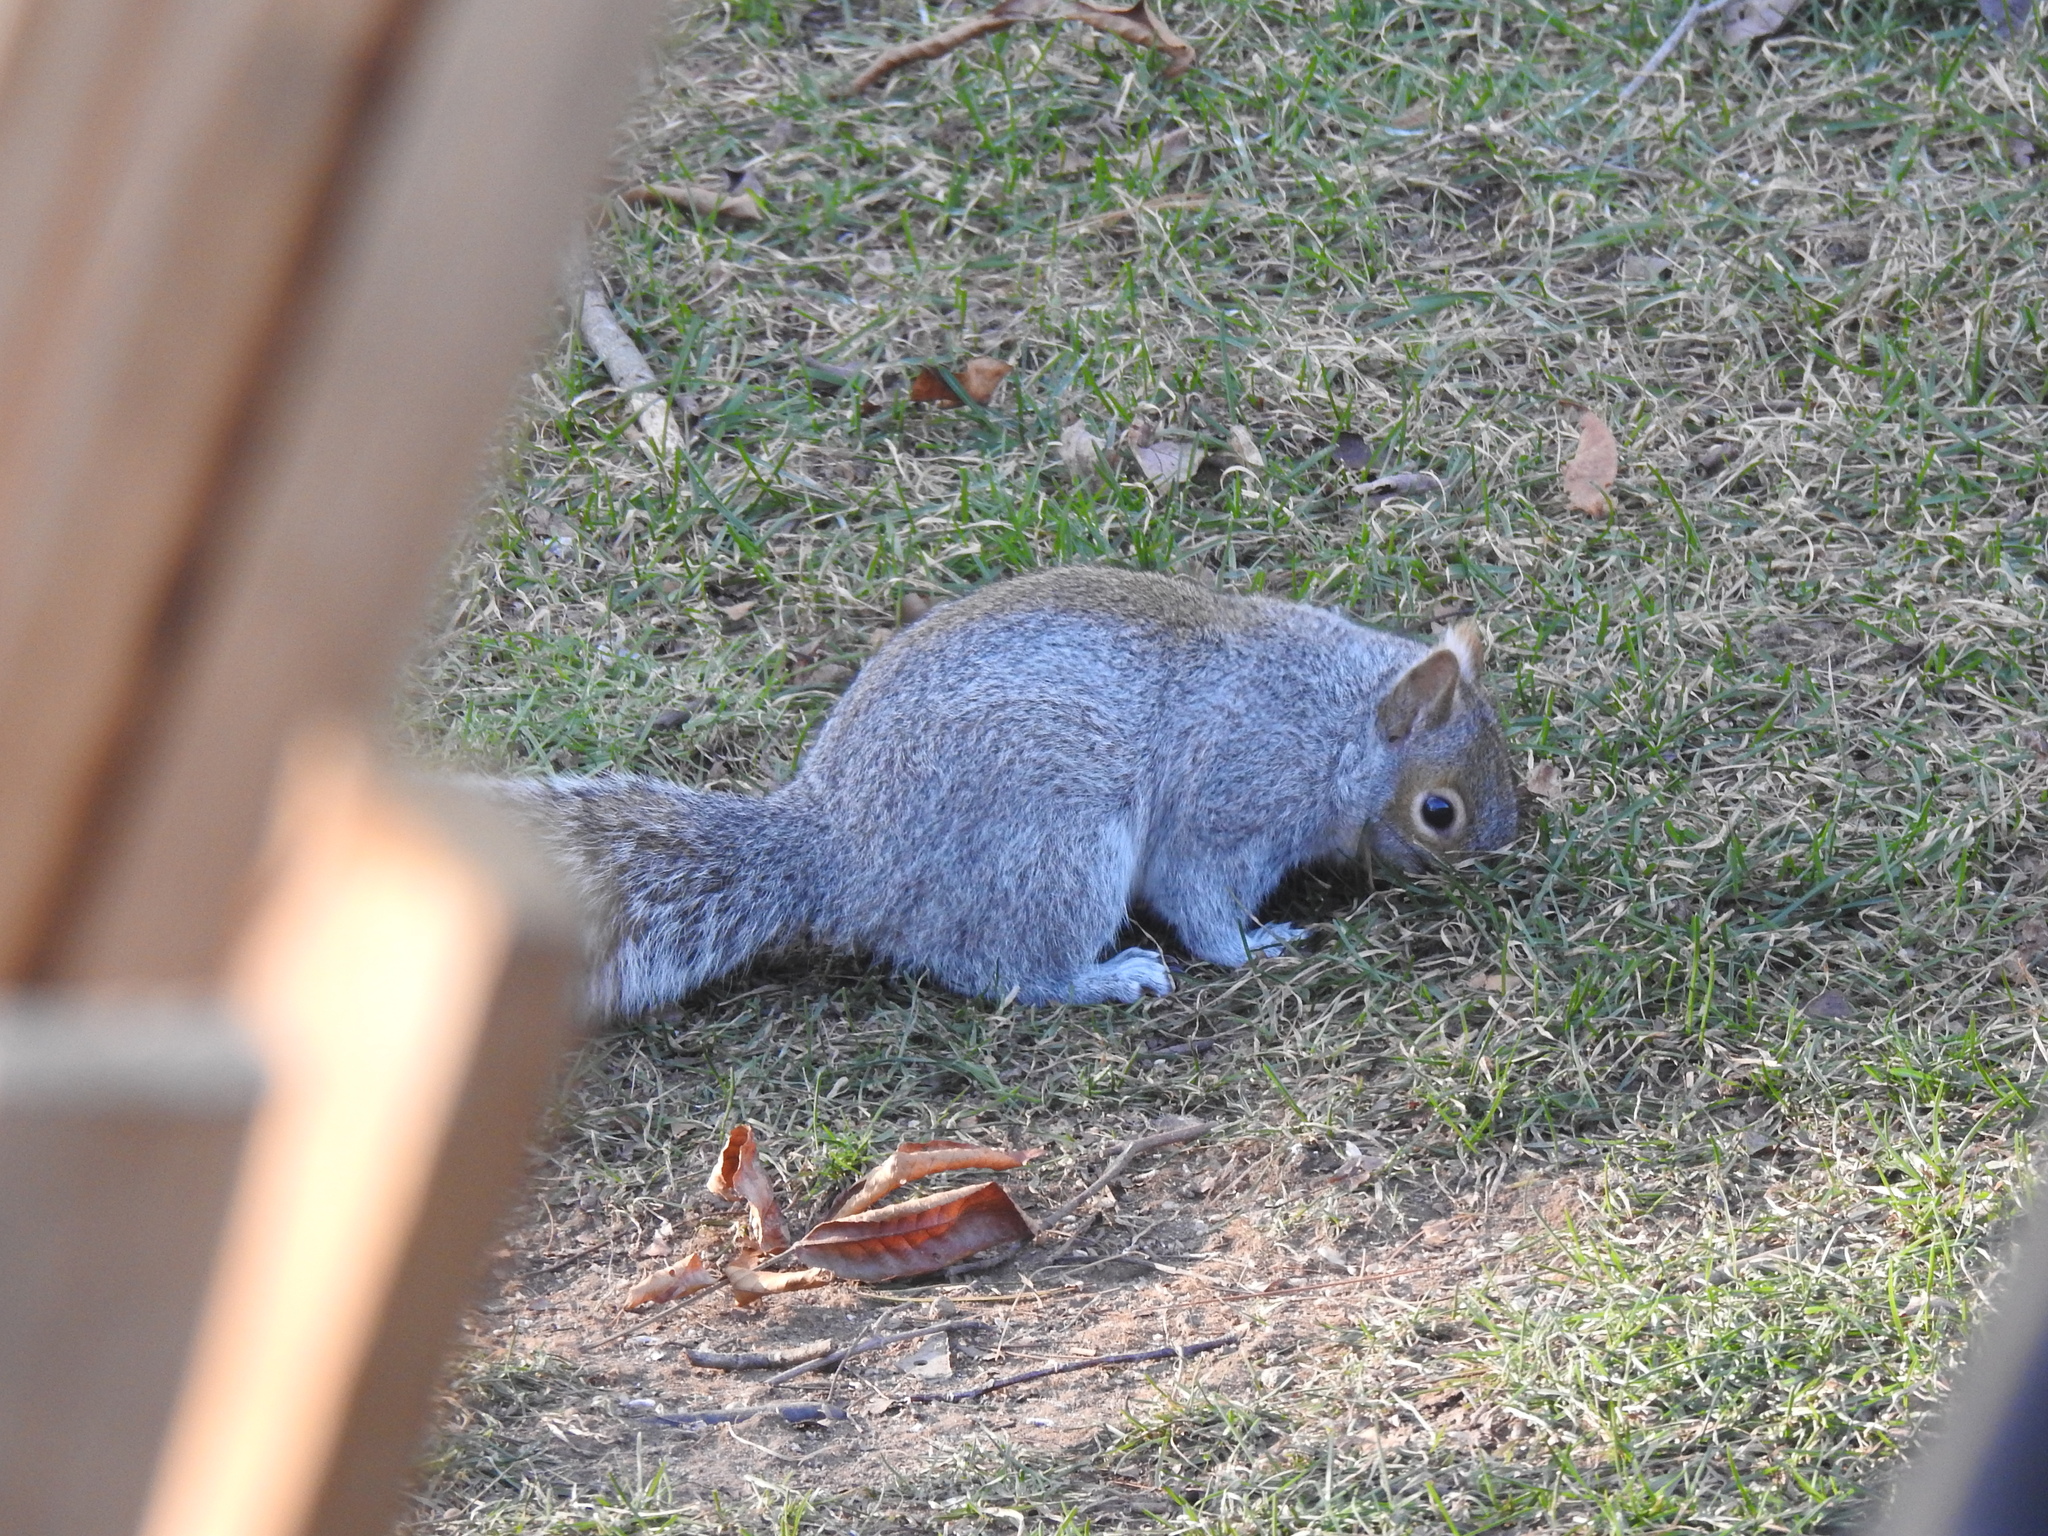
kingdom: Animalia
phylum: Chordata
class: Mammalia
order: Rodentia
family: Sciuridae
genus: Sciurus
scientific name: Sciurus carolinensis
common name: Eastern gray squirrel
